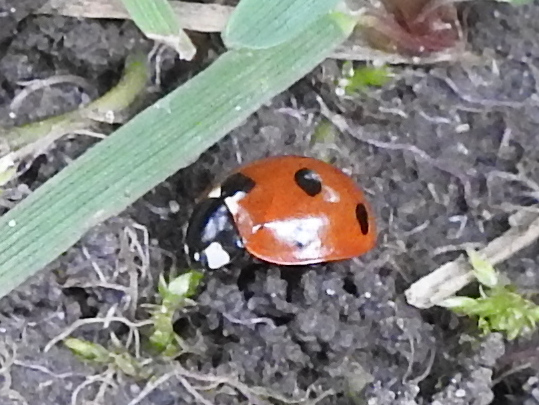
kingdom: Animalia
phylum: Arthropoda
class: Insecta
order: Coleoptera
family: Coccinellidae
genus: Coccinella
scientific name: Coccinella septempunctata
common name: Sevenspotted lady beetle
